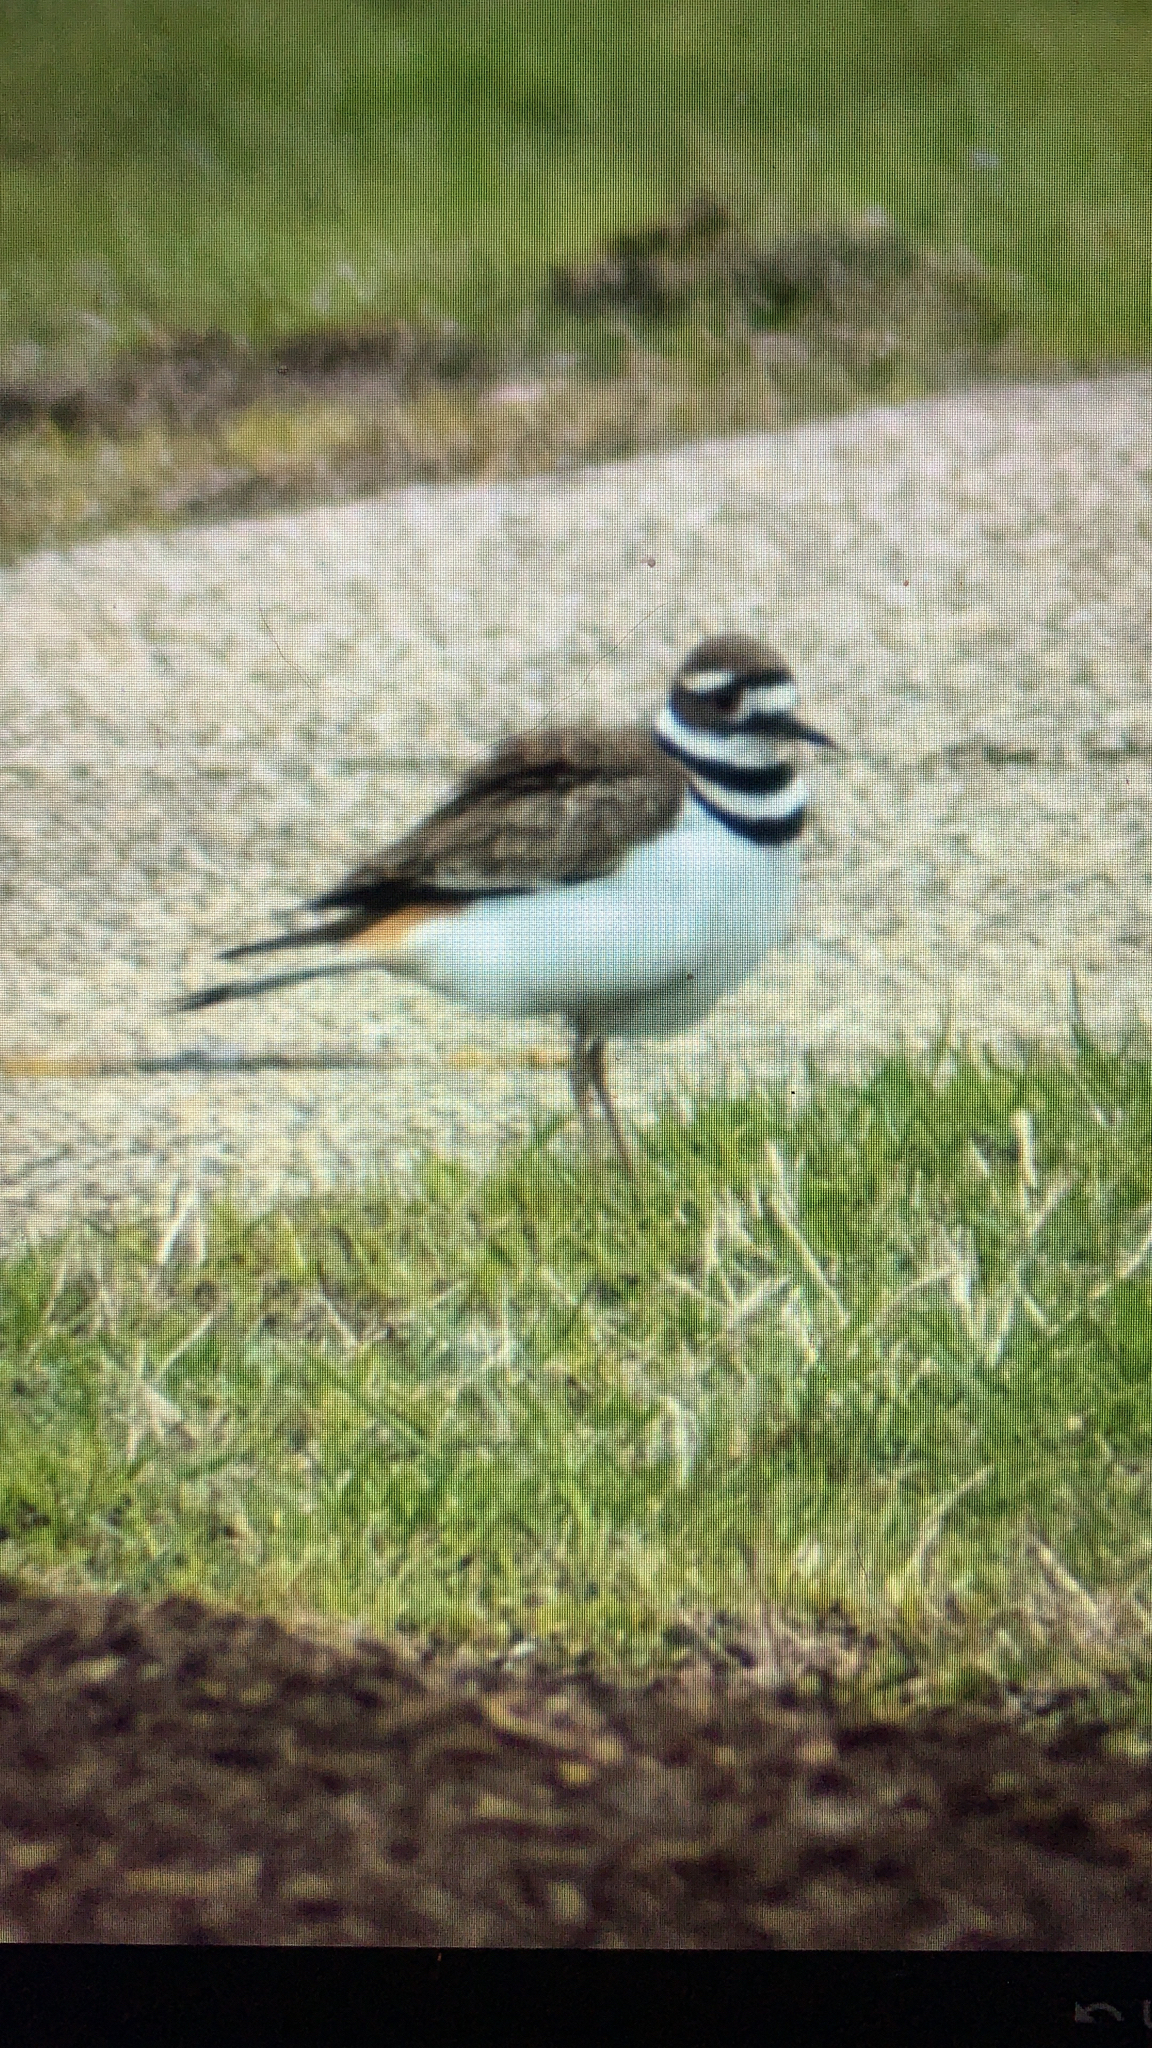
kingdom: Animalia
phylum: Chordata
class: Aves
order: Charadriiformes
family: Charadriidae
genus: Charadrius
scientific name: Charadrius vociferus
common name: Killdeer
